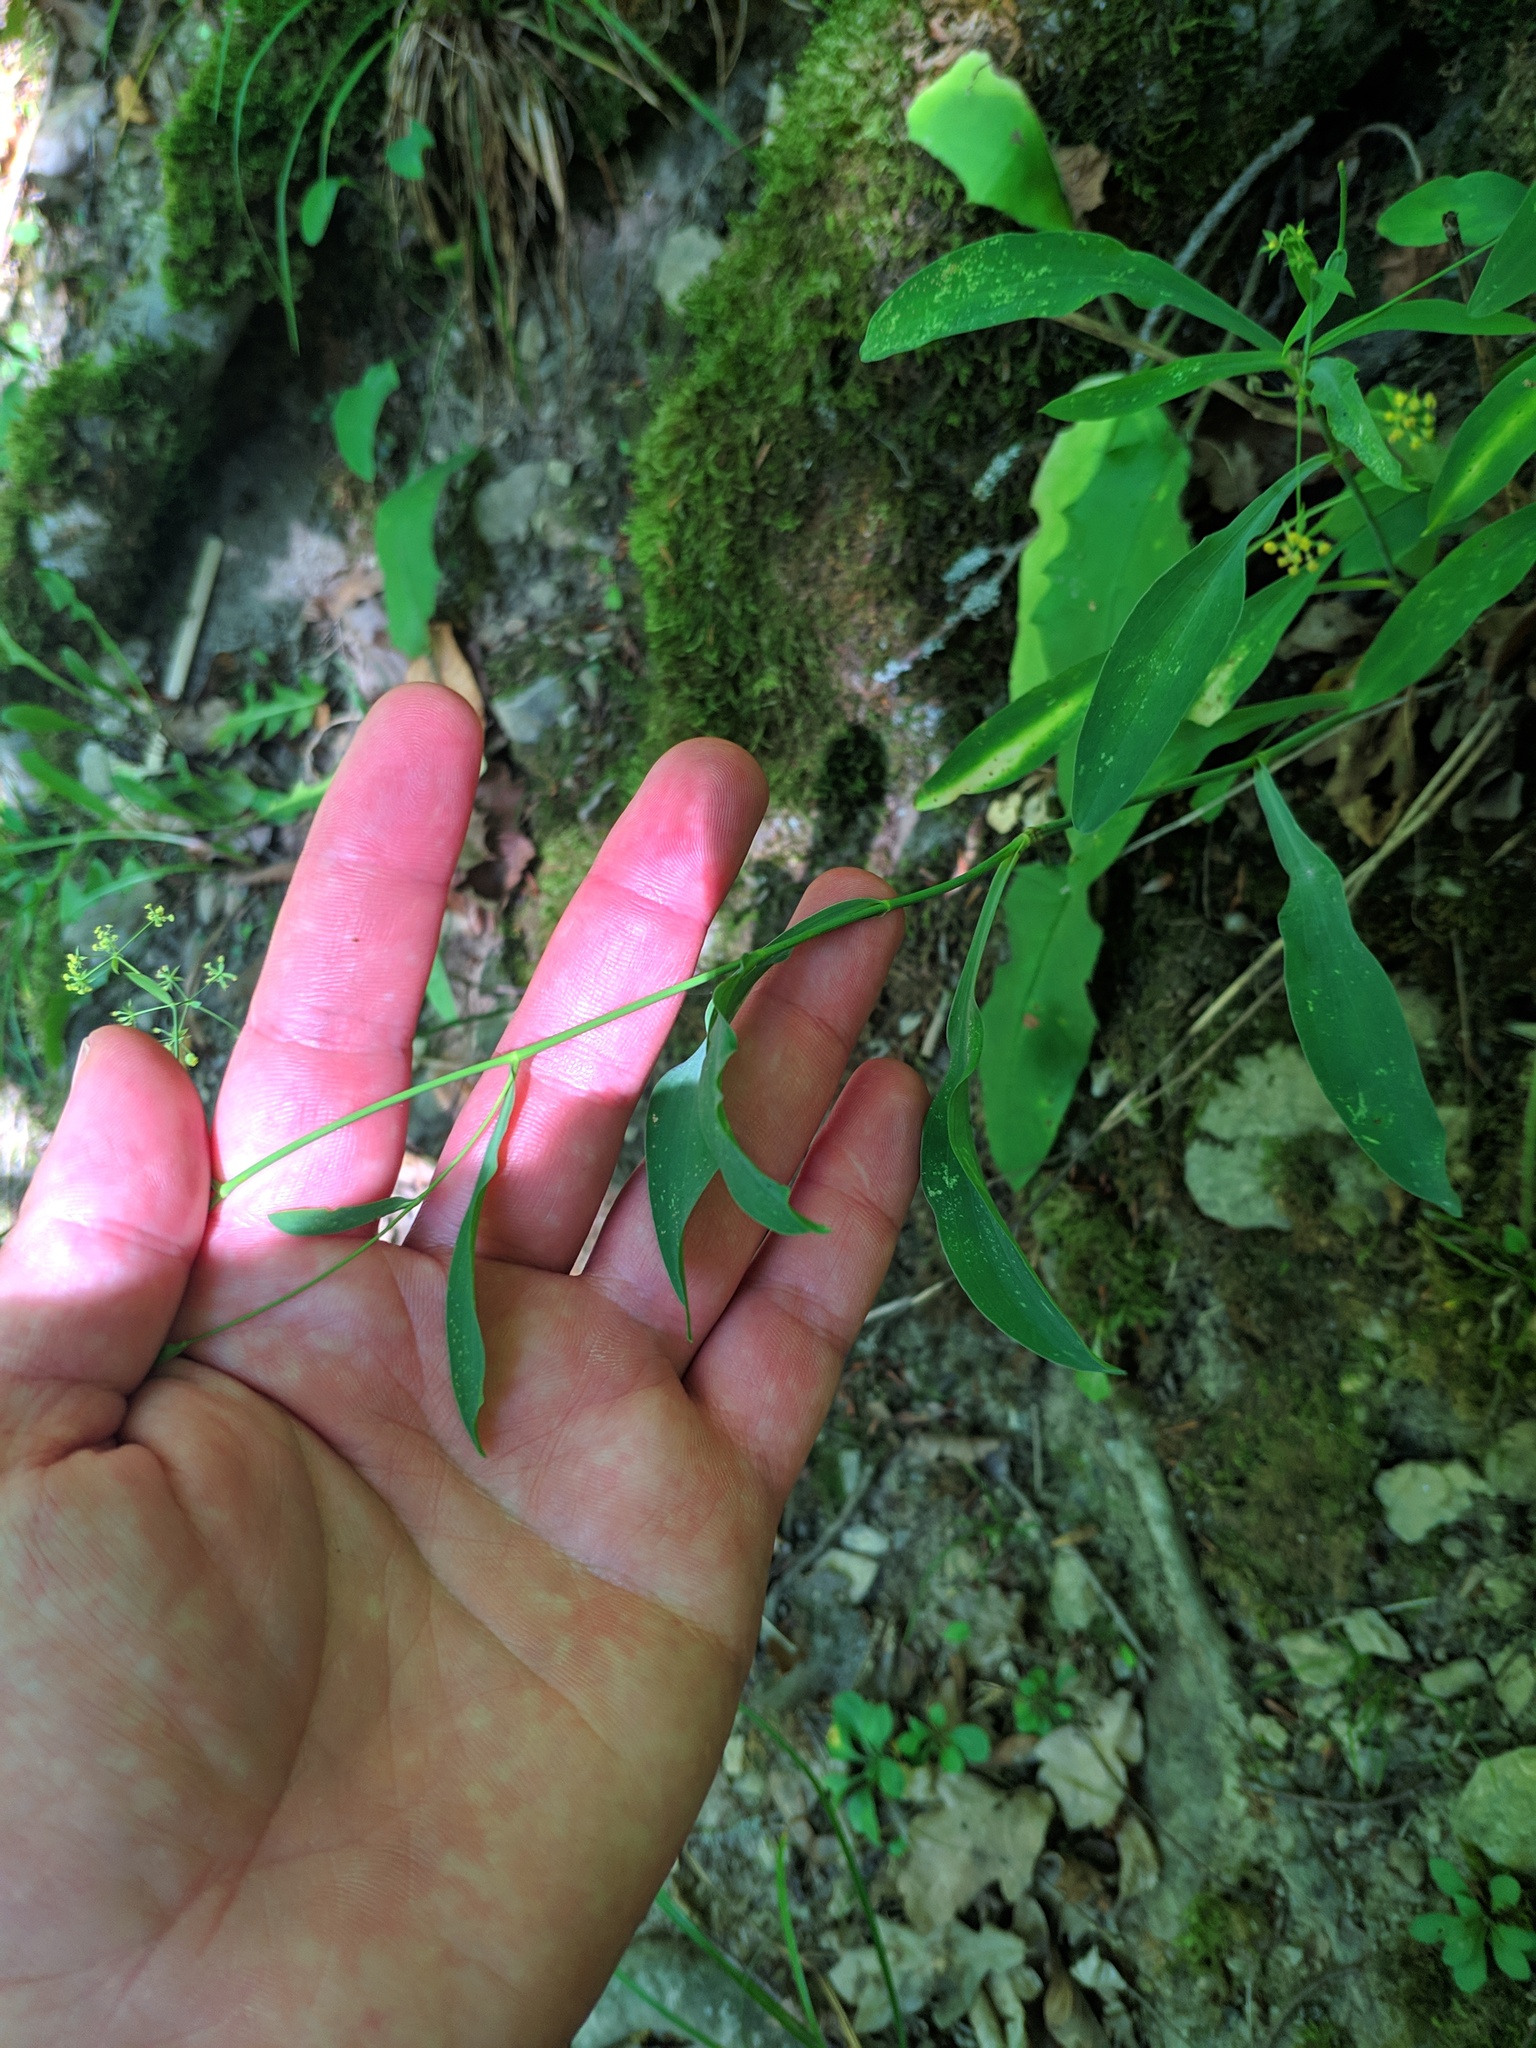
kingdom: Plantae
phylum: Tracheophyta
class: Magnoliopsida
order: Apiales
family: Apiaceae
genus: Bupleurum
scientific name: Bupleurum falcatum
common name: Sickle-leaved hare's-ear
